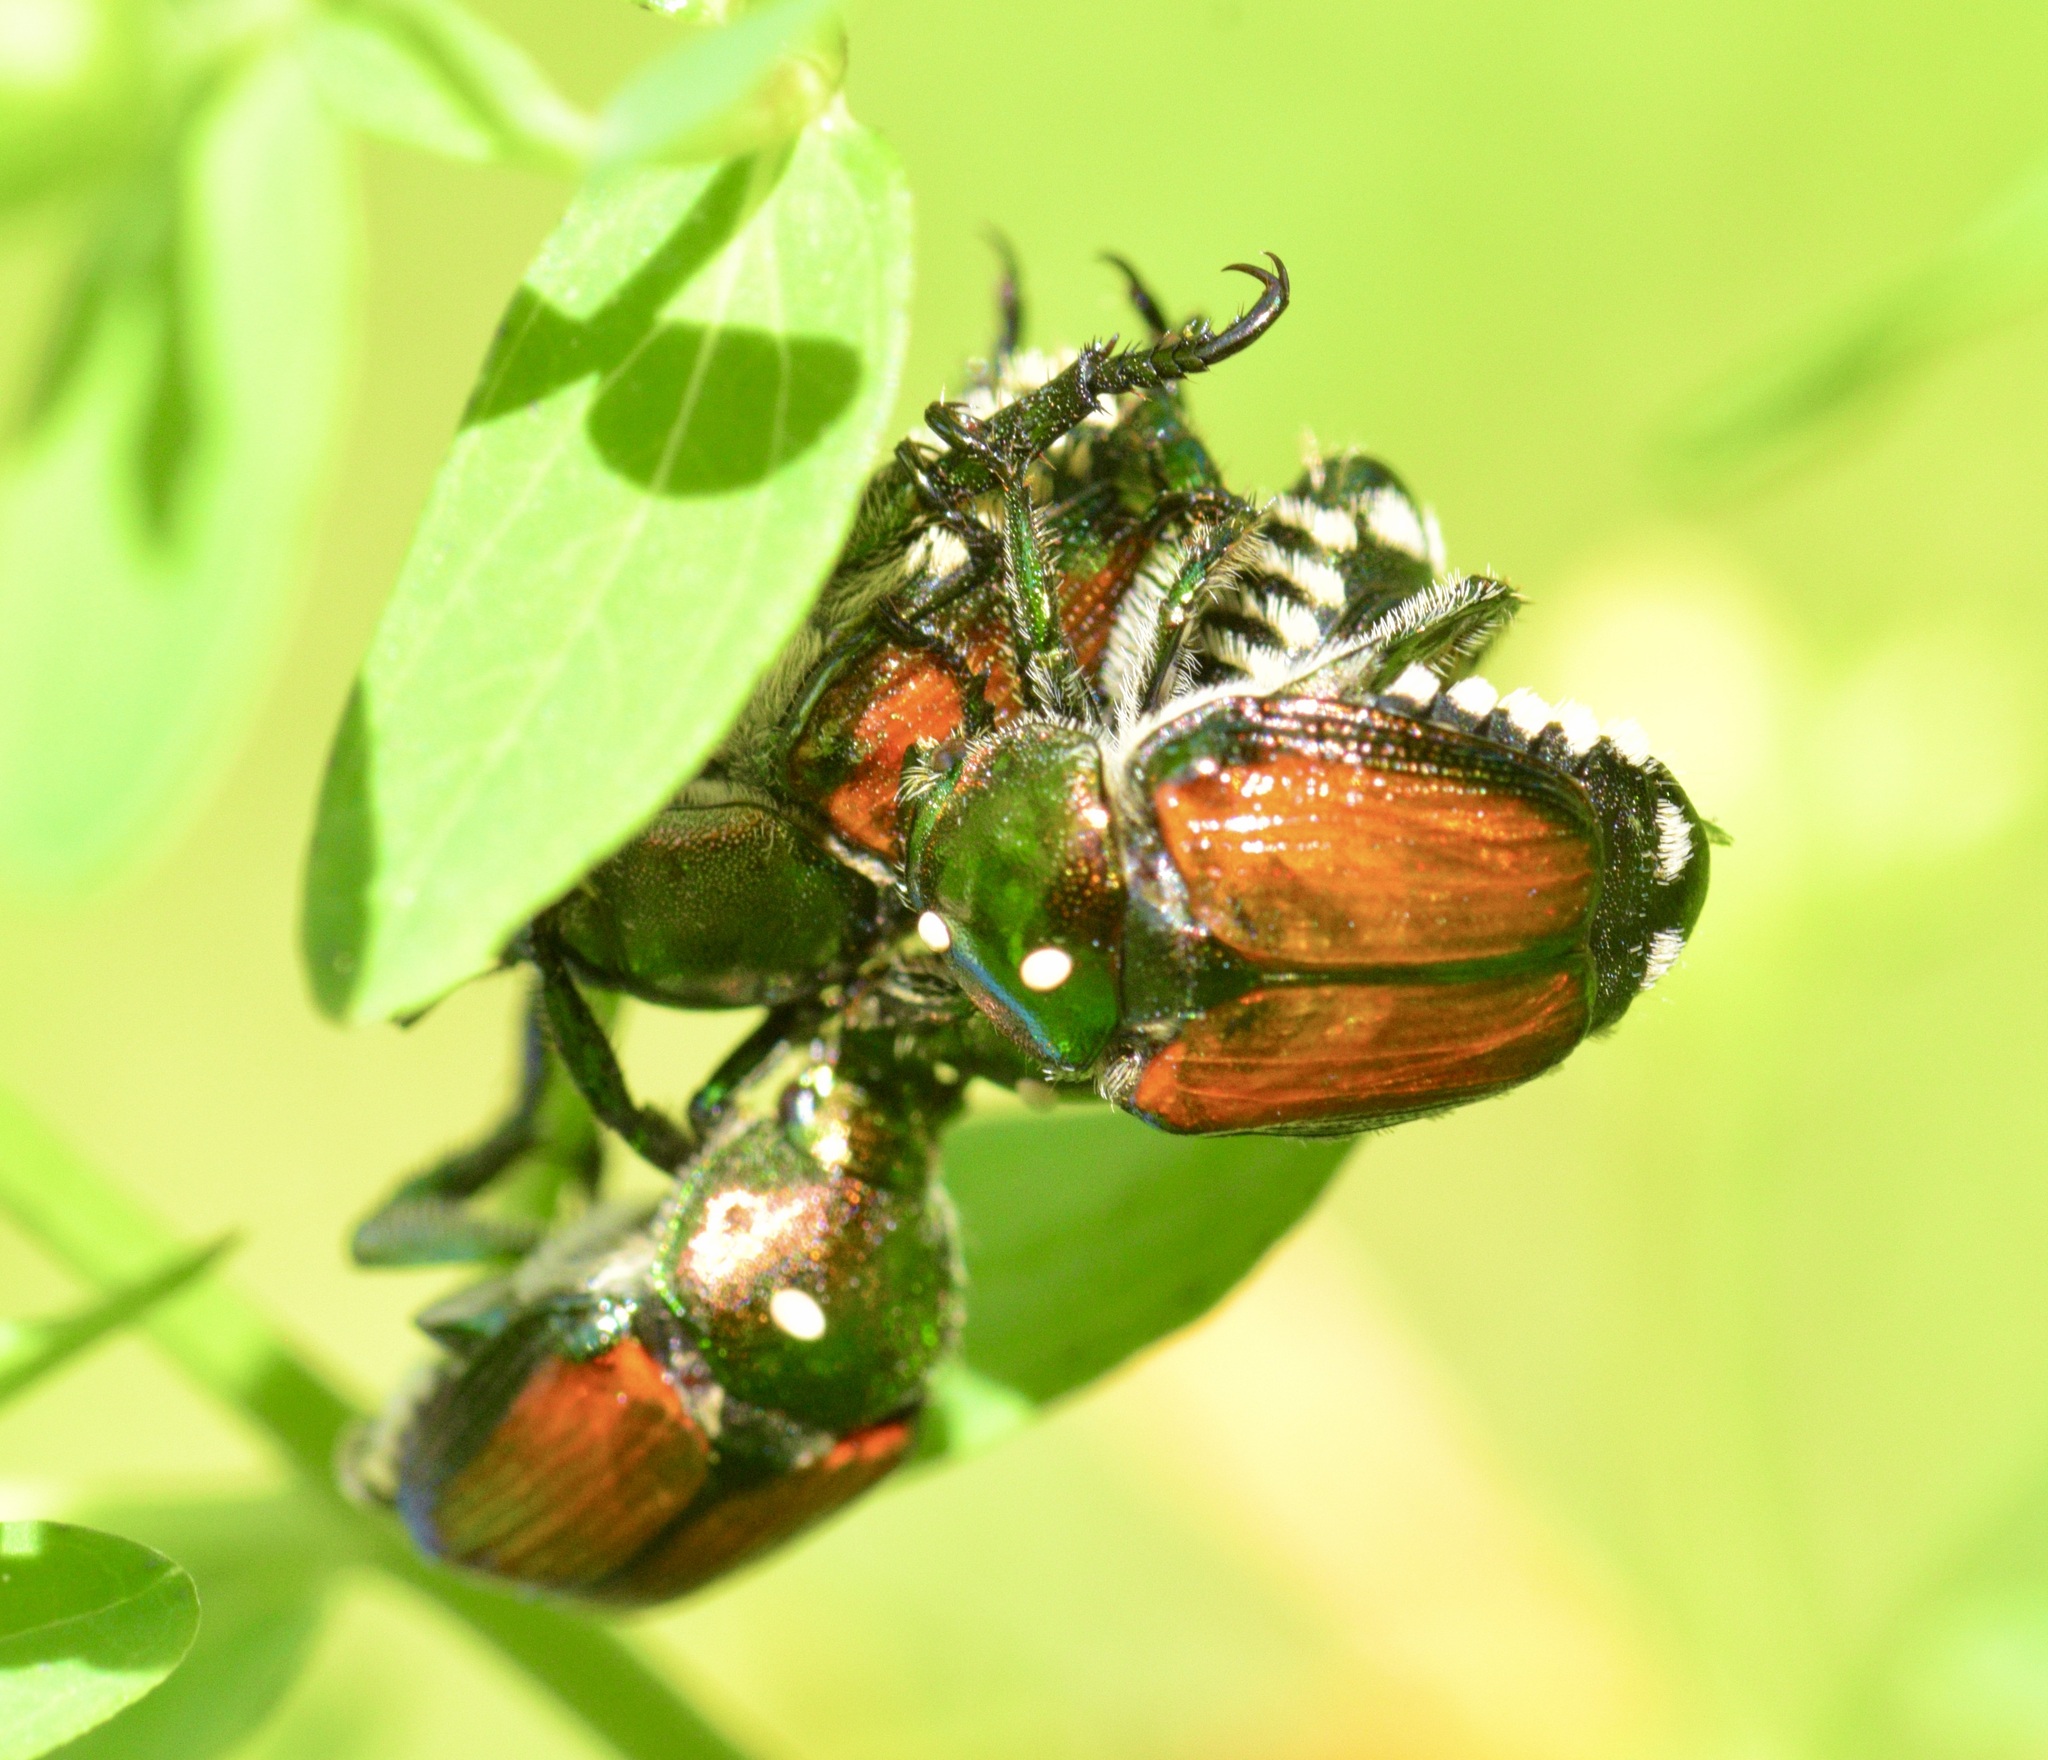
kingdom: Animalia
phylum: Arthropoda
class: Insecta
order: Coleoptera
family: Scarabaeidae
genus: Popillia
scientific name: Popillia japonica
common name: Japanese beetle
